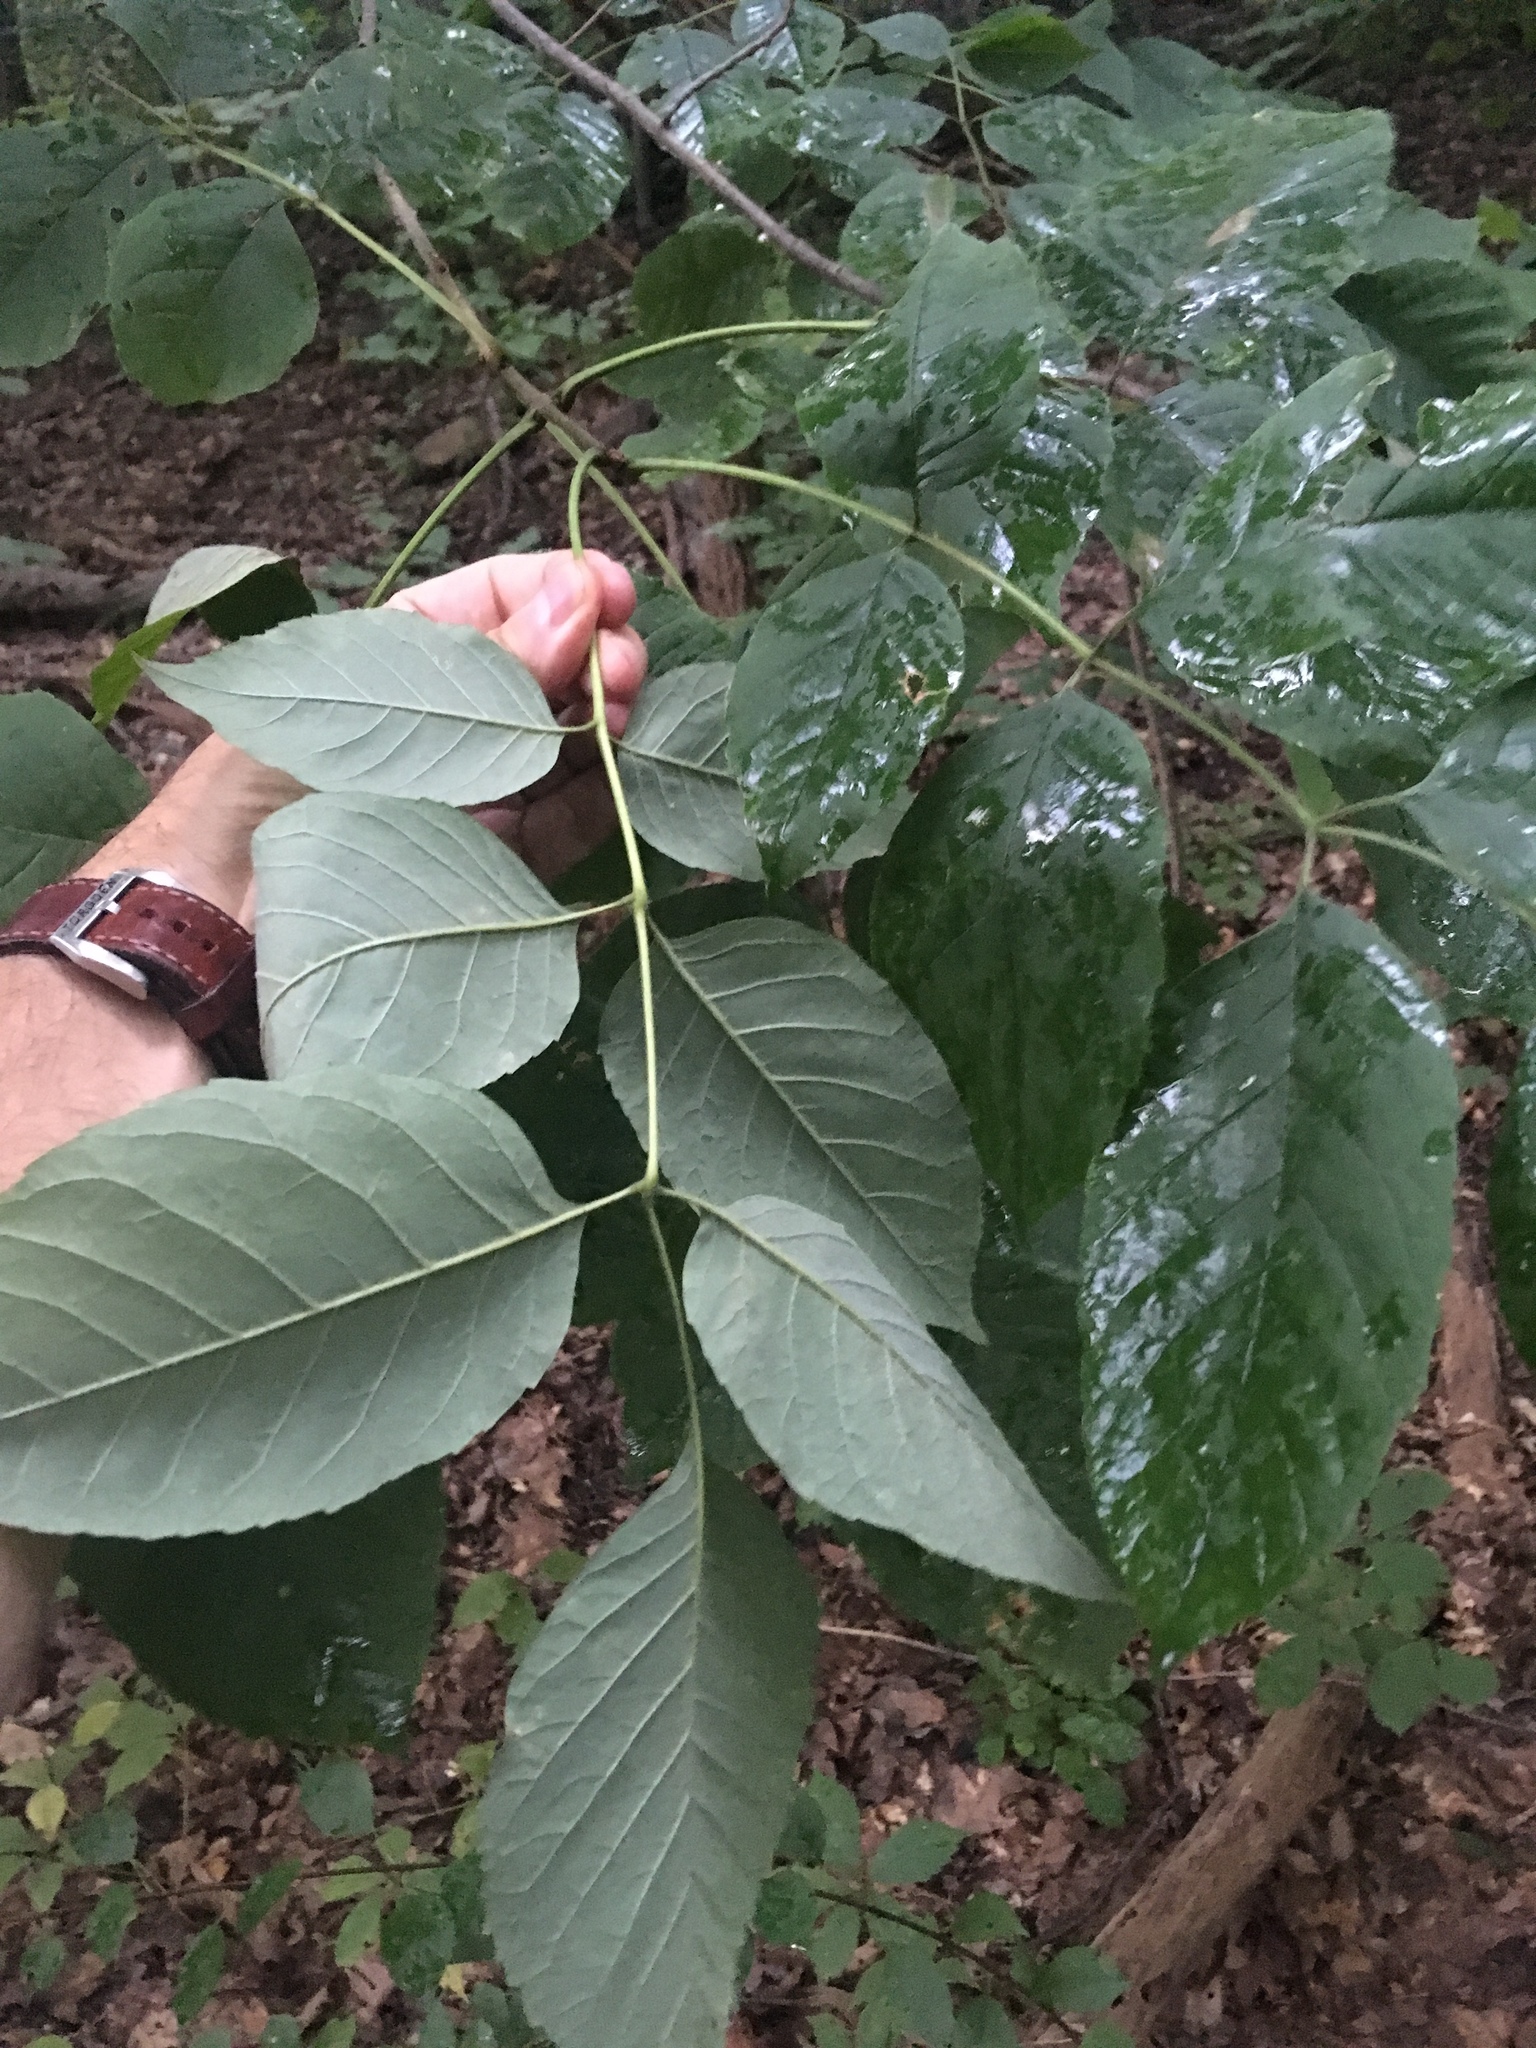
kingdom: Plantae
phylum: Tracheophyta
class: Magnoliopsida
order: Lamiales
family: Oleaceae
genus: Fraxinus
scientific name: Fraxinus americana
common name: White ash
